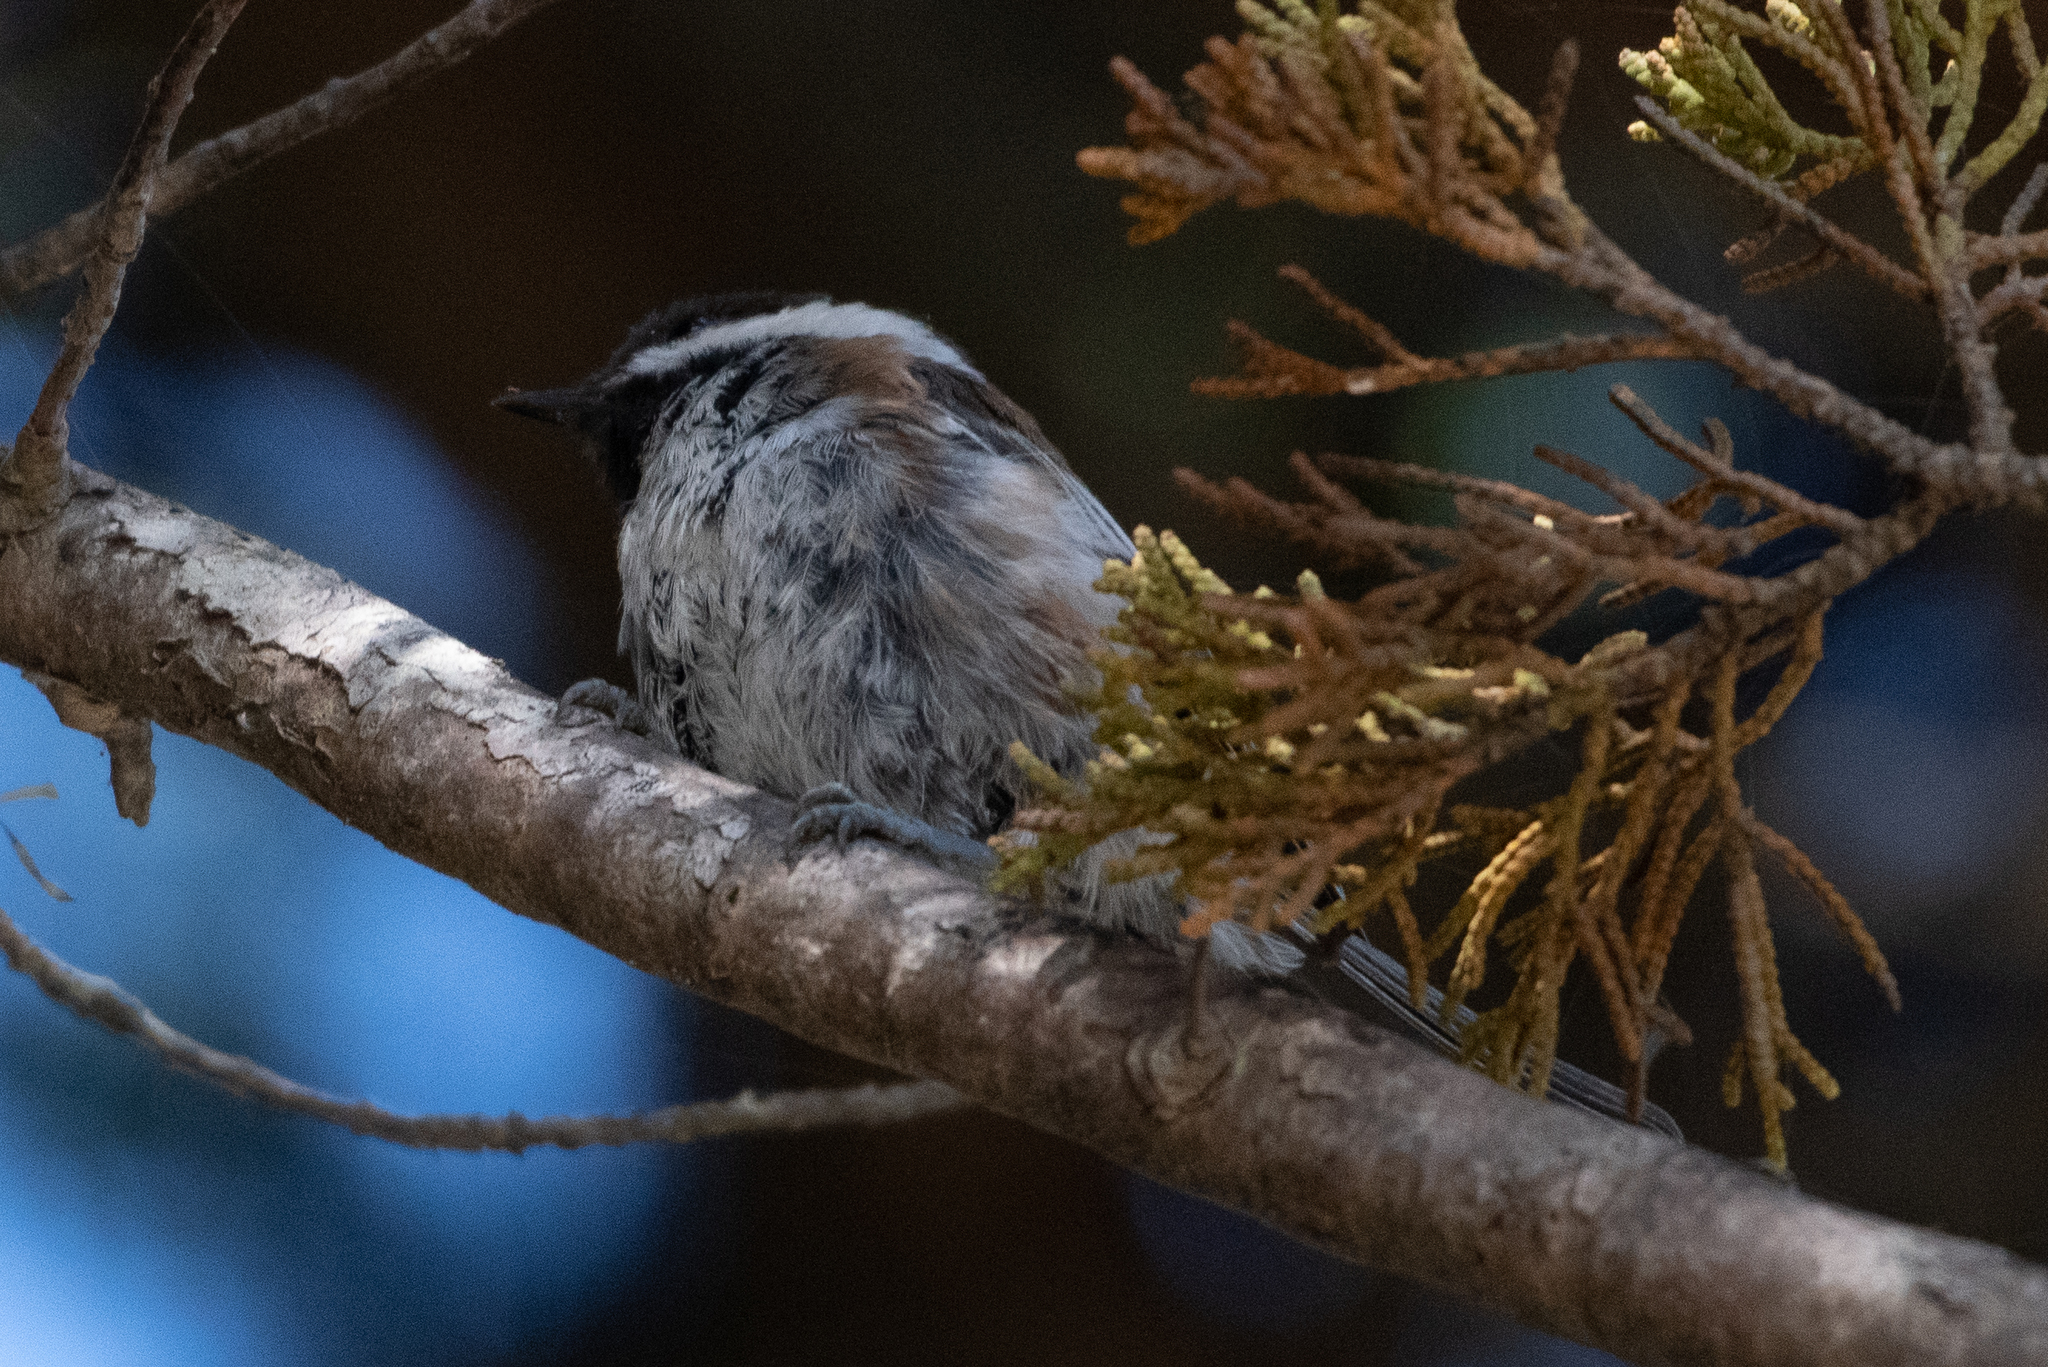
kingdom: Animalia
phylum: Chordata
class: Aves
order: Passeriformes
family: Paridae
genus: Poecile
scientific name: Poecile rufescens
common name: Chestnut-backed chickadee
